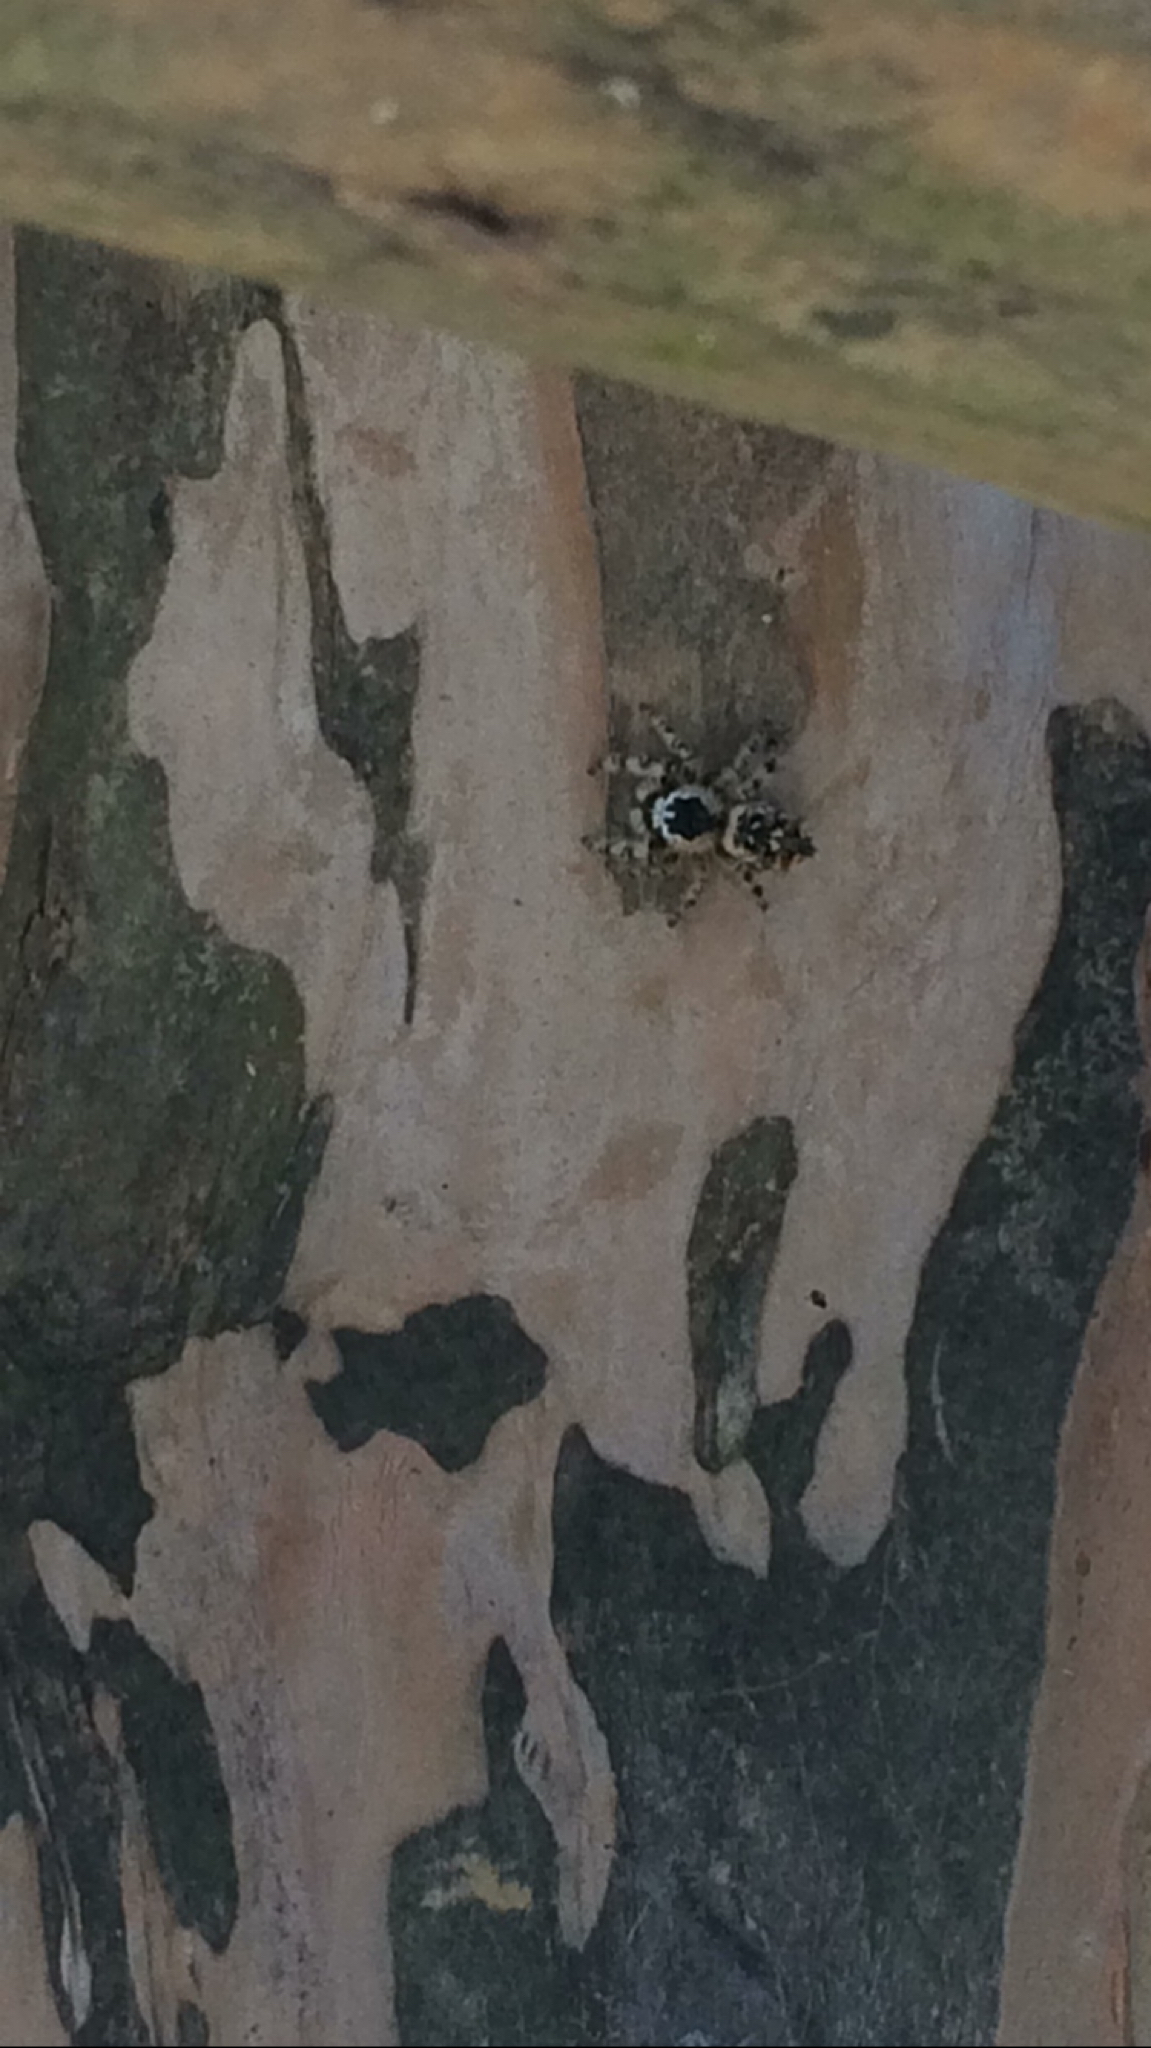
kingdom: Animalia
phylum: Arthropoda
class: Arachnida
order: Araneae
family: Salticidae
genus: Phidippus
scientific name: Phidippus otiosus
